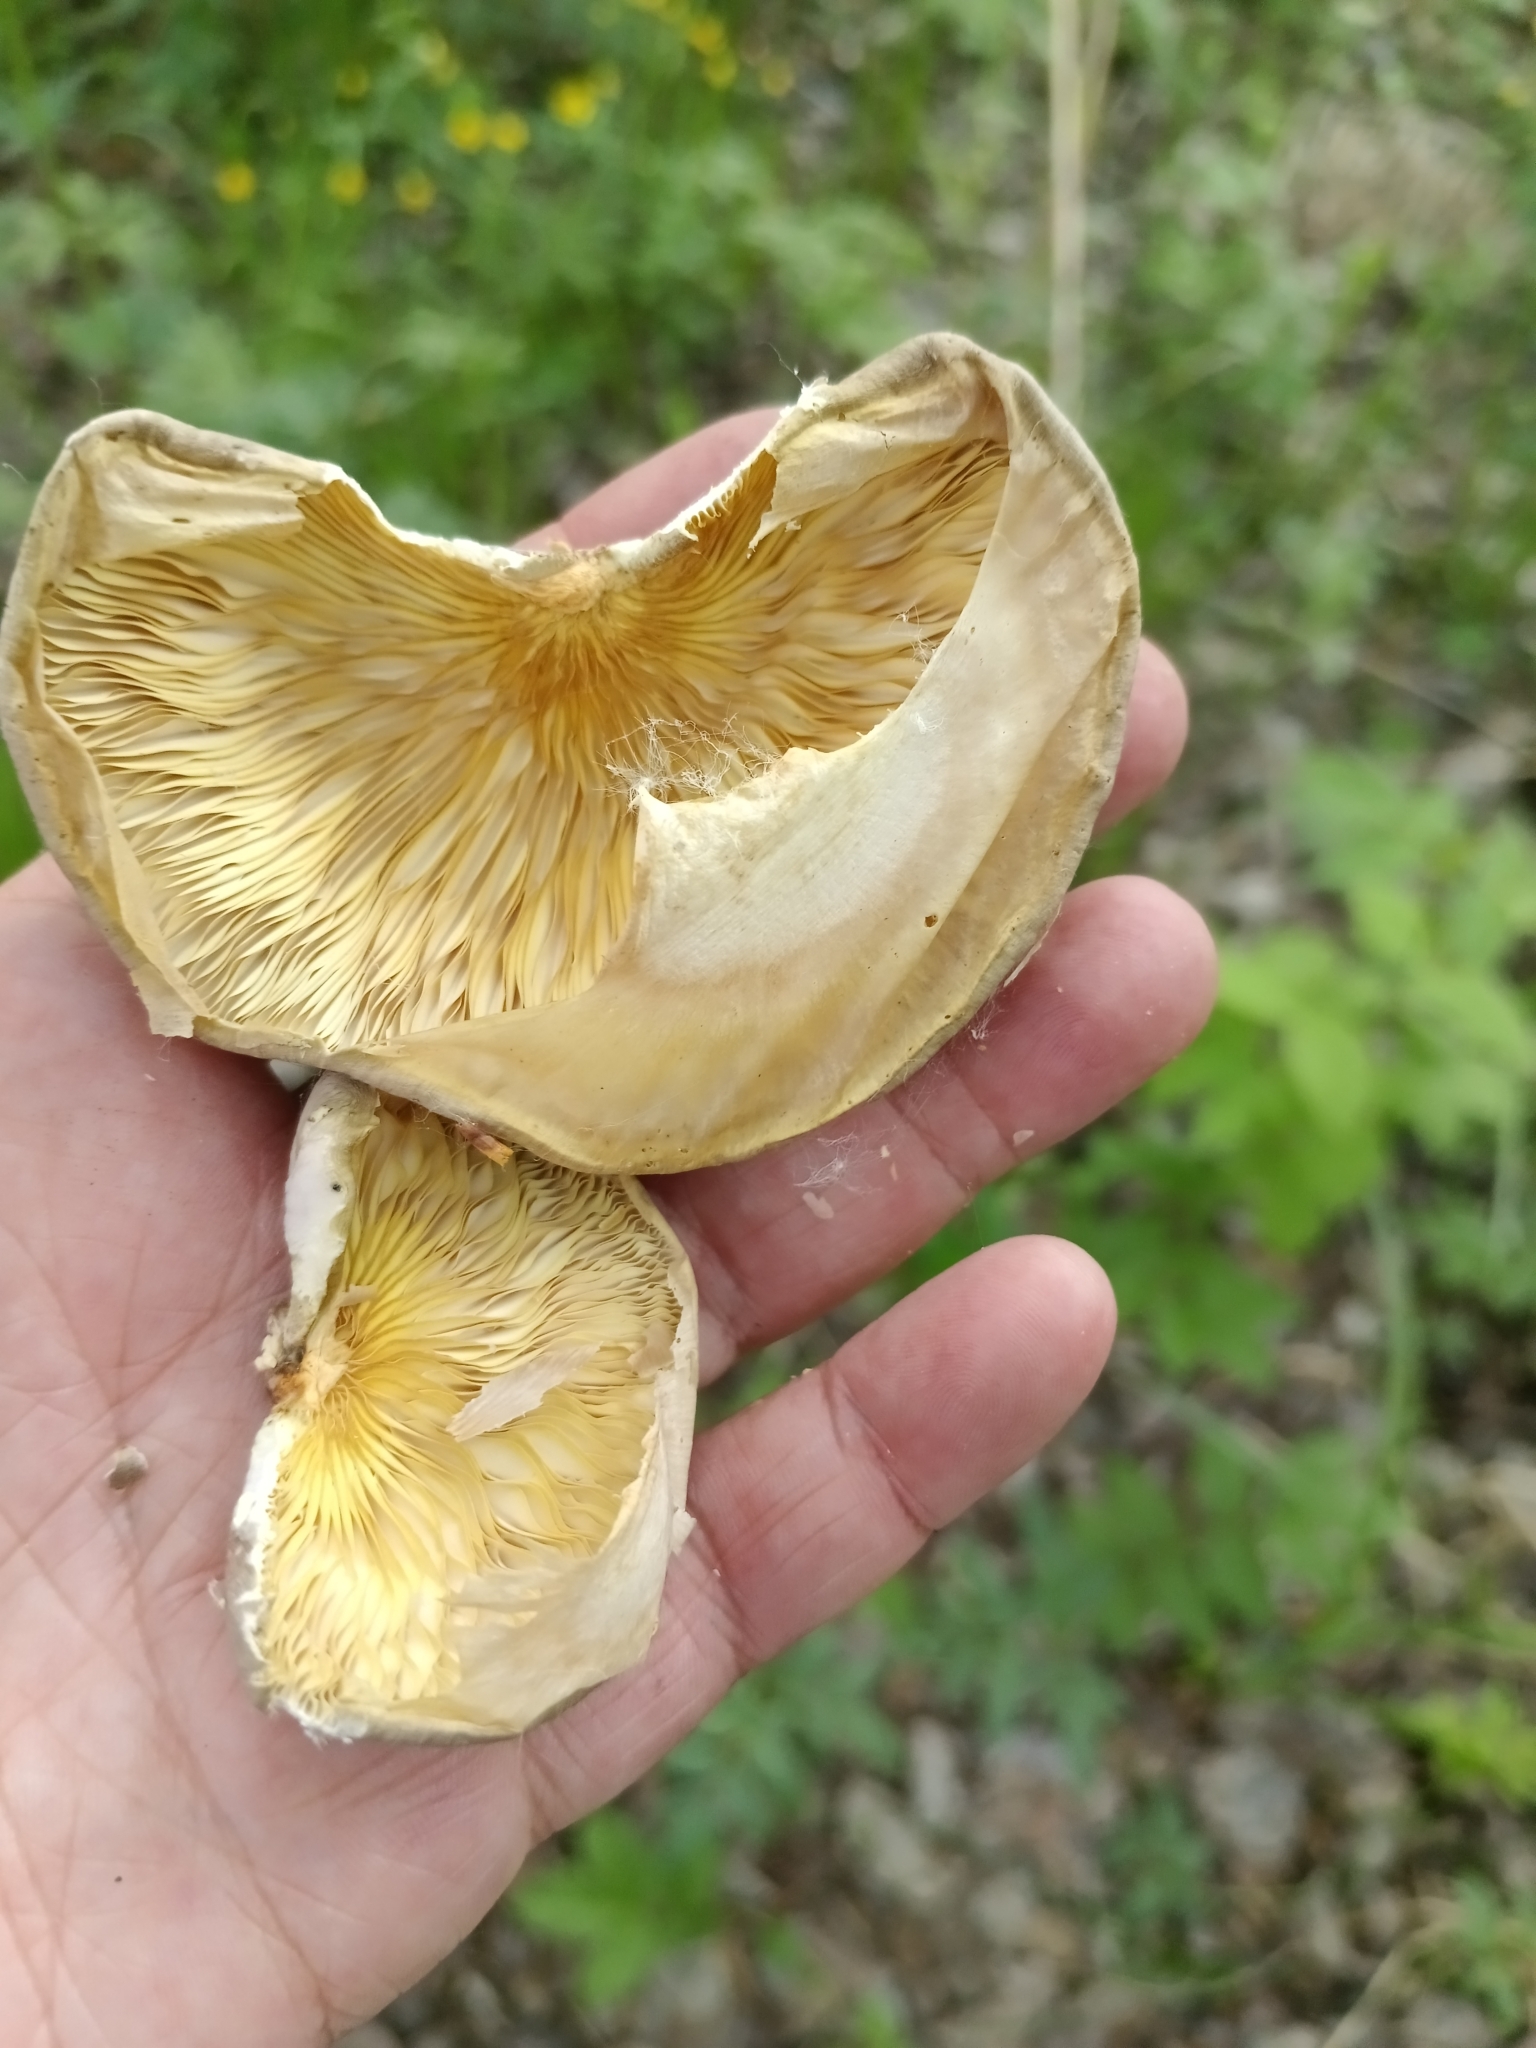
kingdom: Fungi
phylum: Basidiomycota
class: Agaricomycetes
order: Agaricales
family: Pleurotaceae
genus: Pleurotus
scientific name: Pleurotus calyptratus
